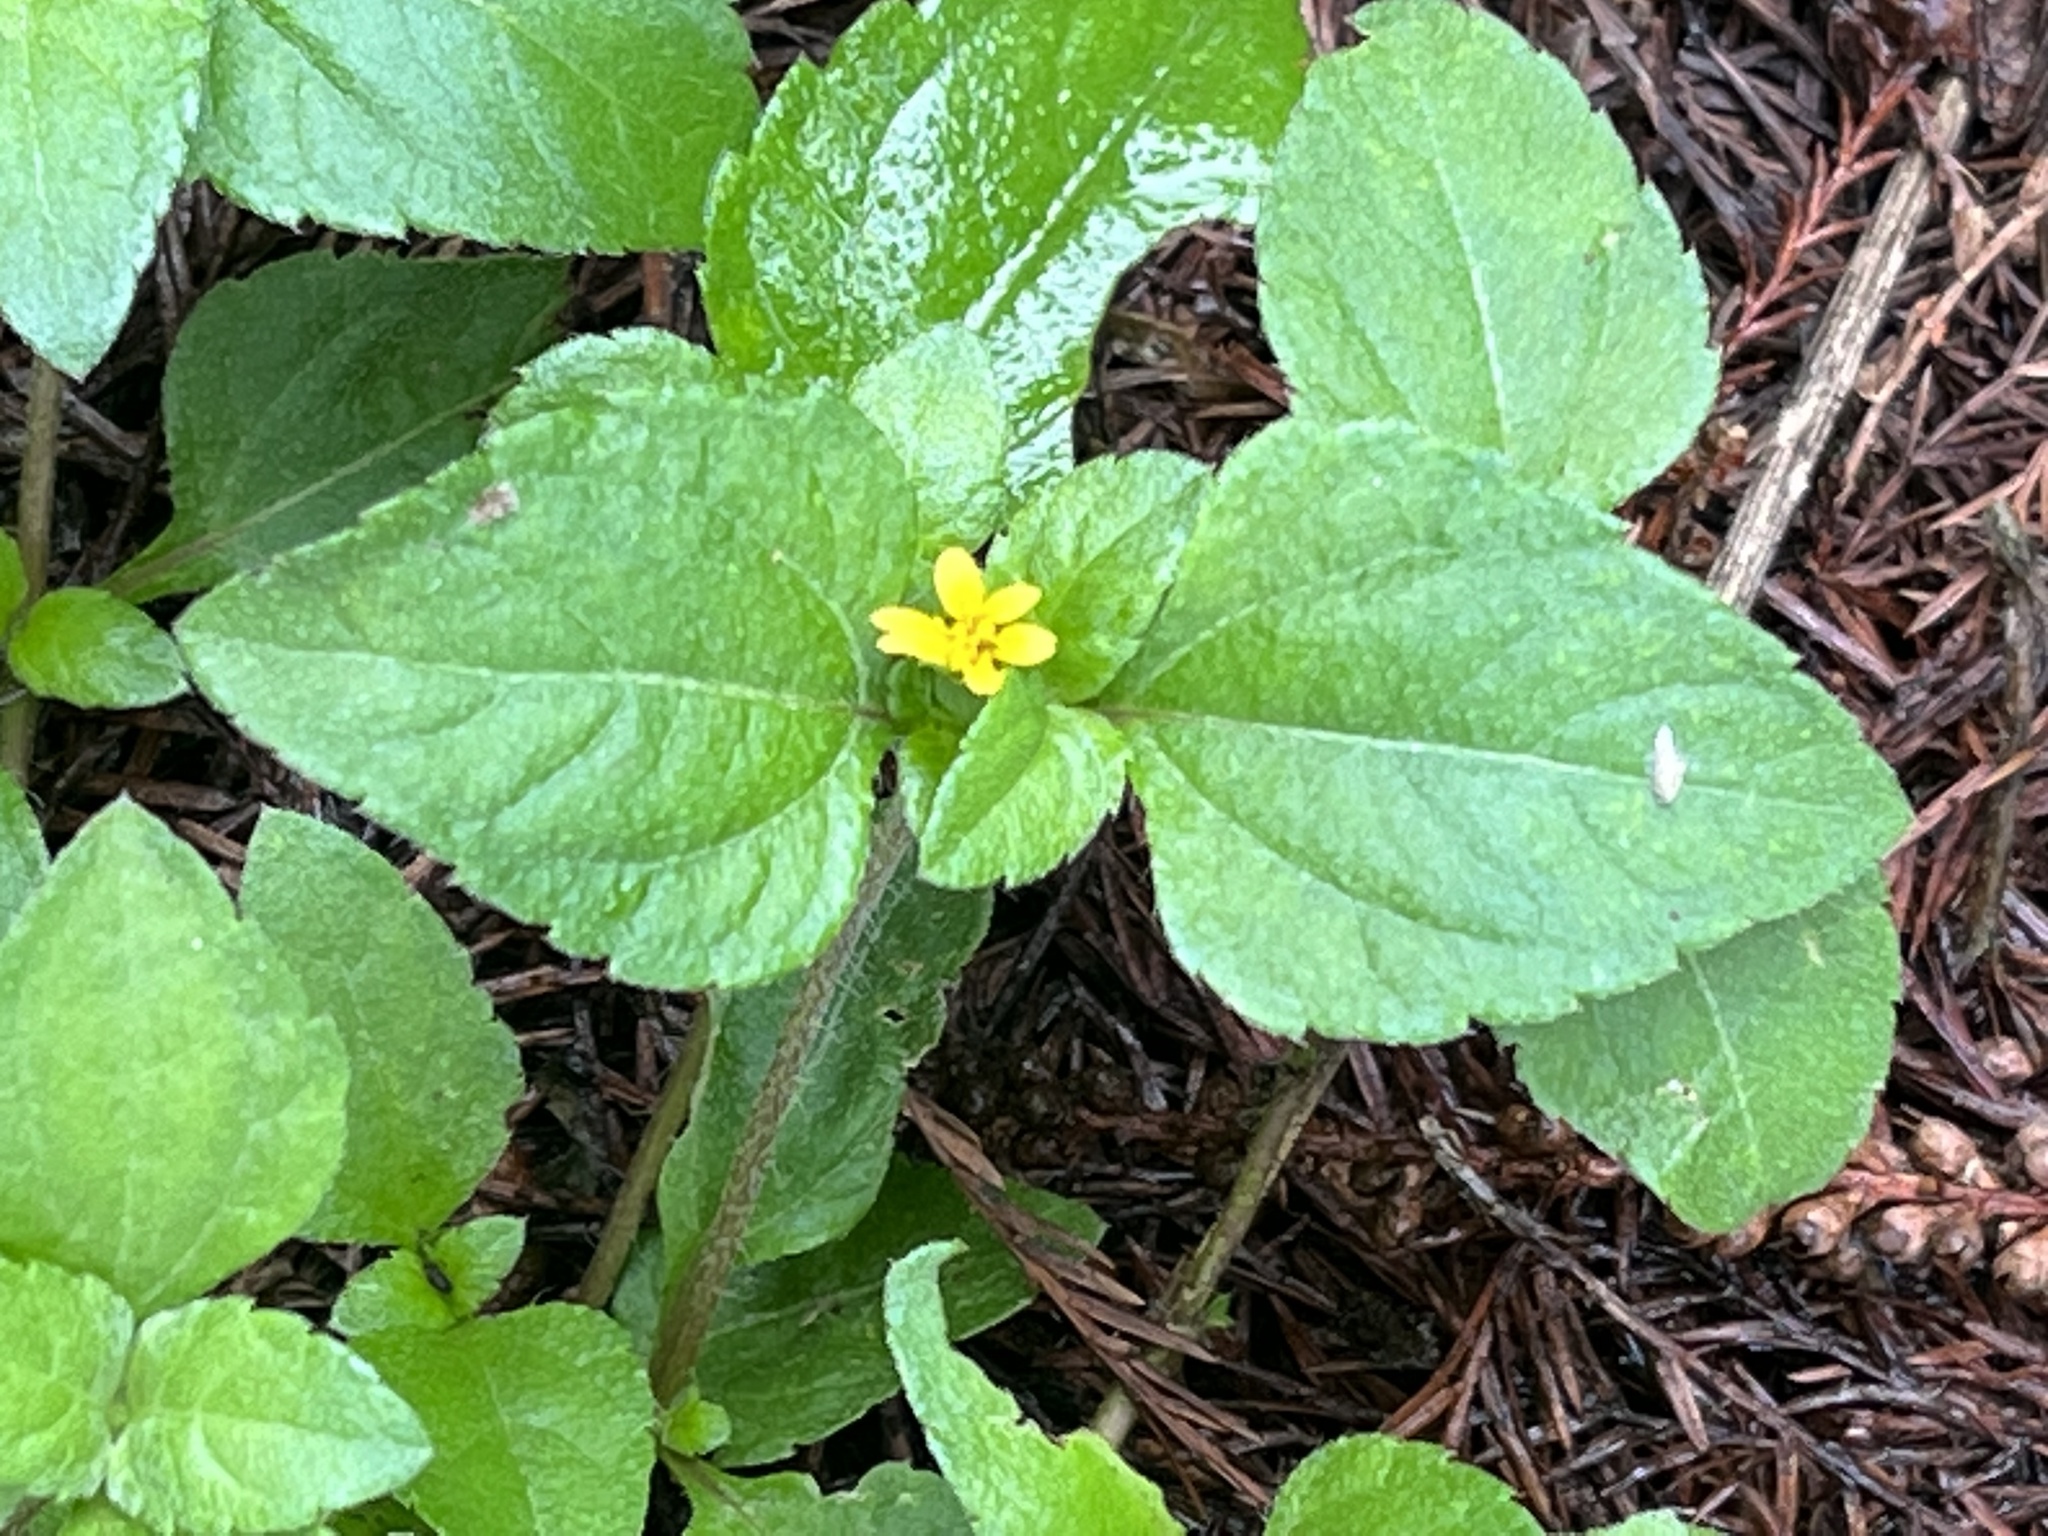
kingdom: Plantae
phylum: Tracheophyta
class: Magnoliopsida
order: Asterales
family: Asteraceae
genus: Calyptocarpus
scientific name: Calyptocarpus vialis
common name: Straggler daisy
